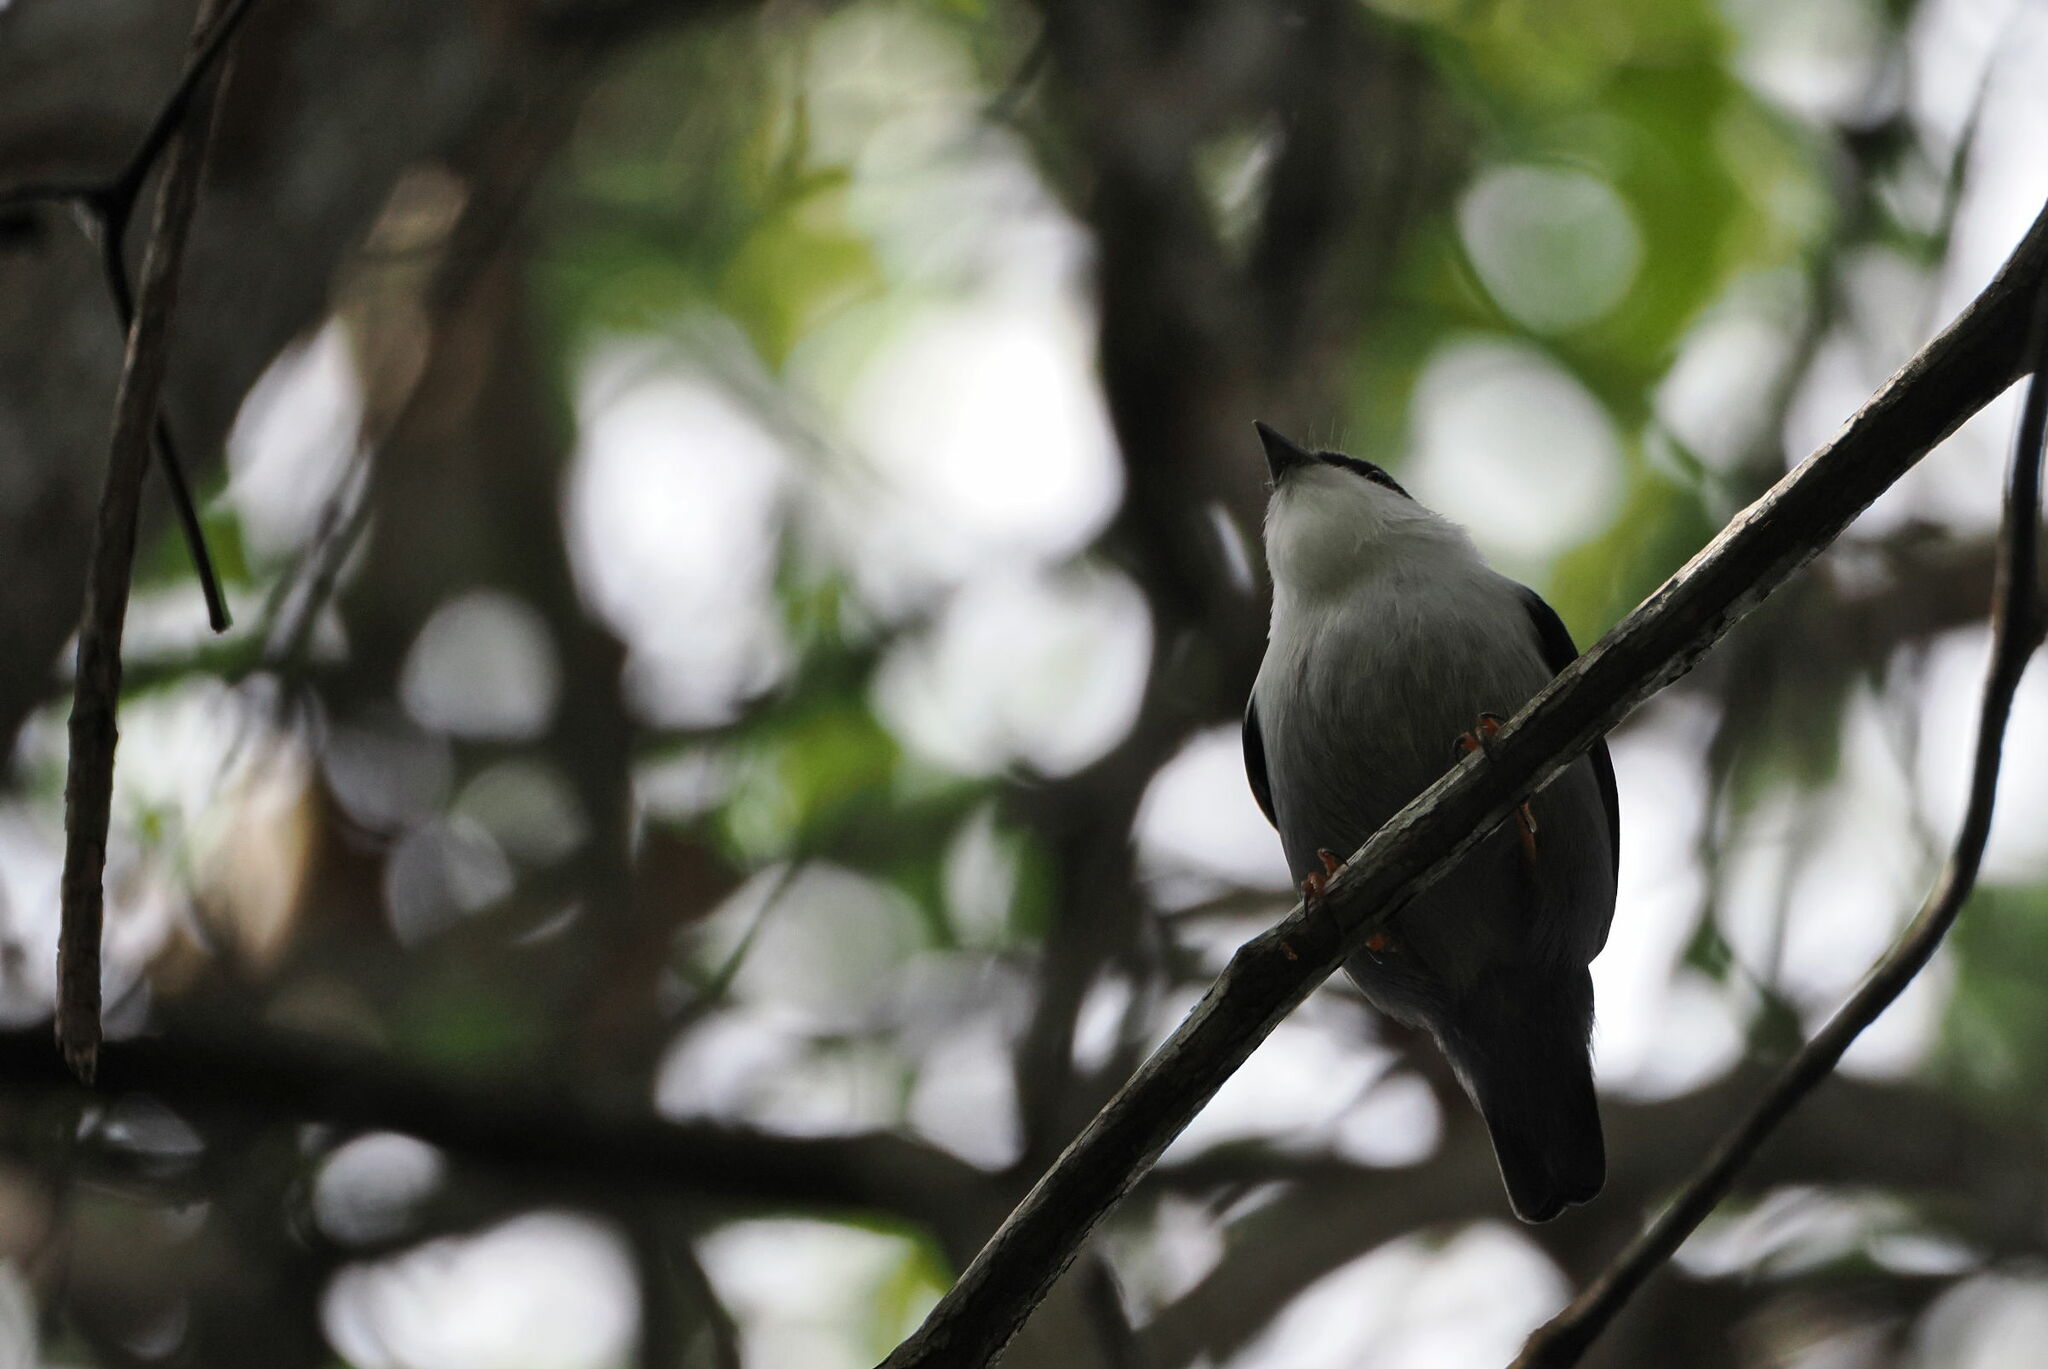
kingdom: Animalia
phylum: Chordata
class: Aves
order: Passeriformes
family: Pipridae
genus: Manacus
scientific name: Manacus manacus
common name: White-bearded manakin
